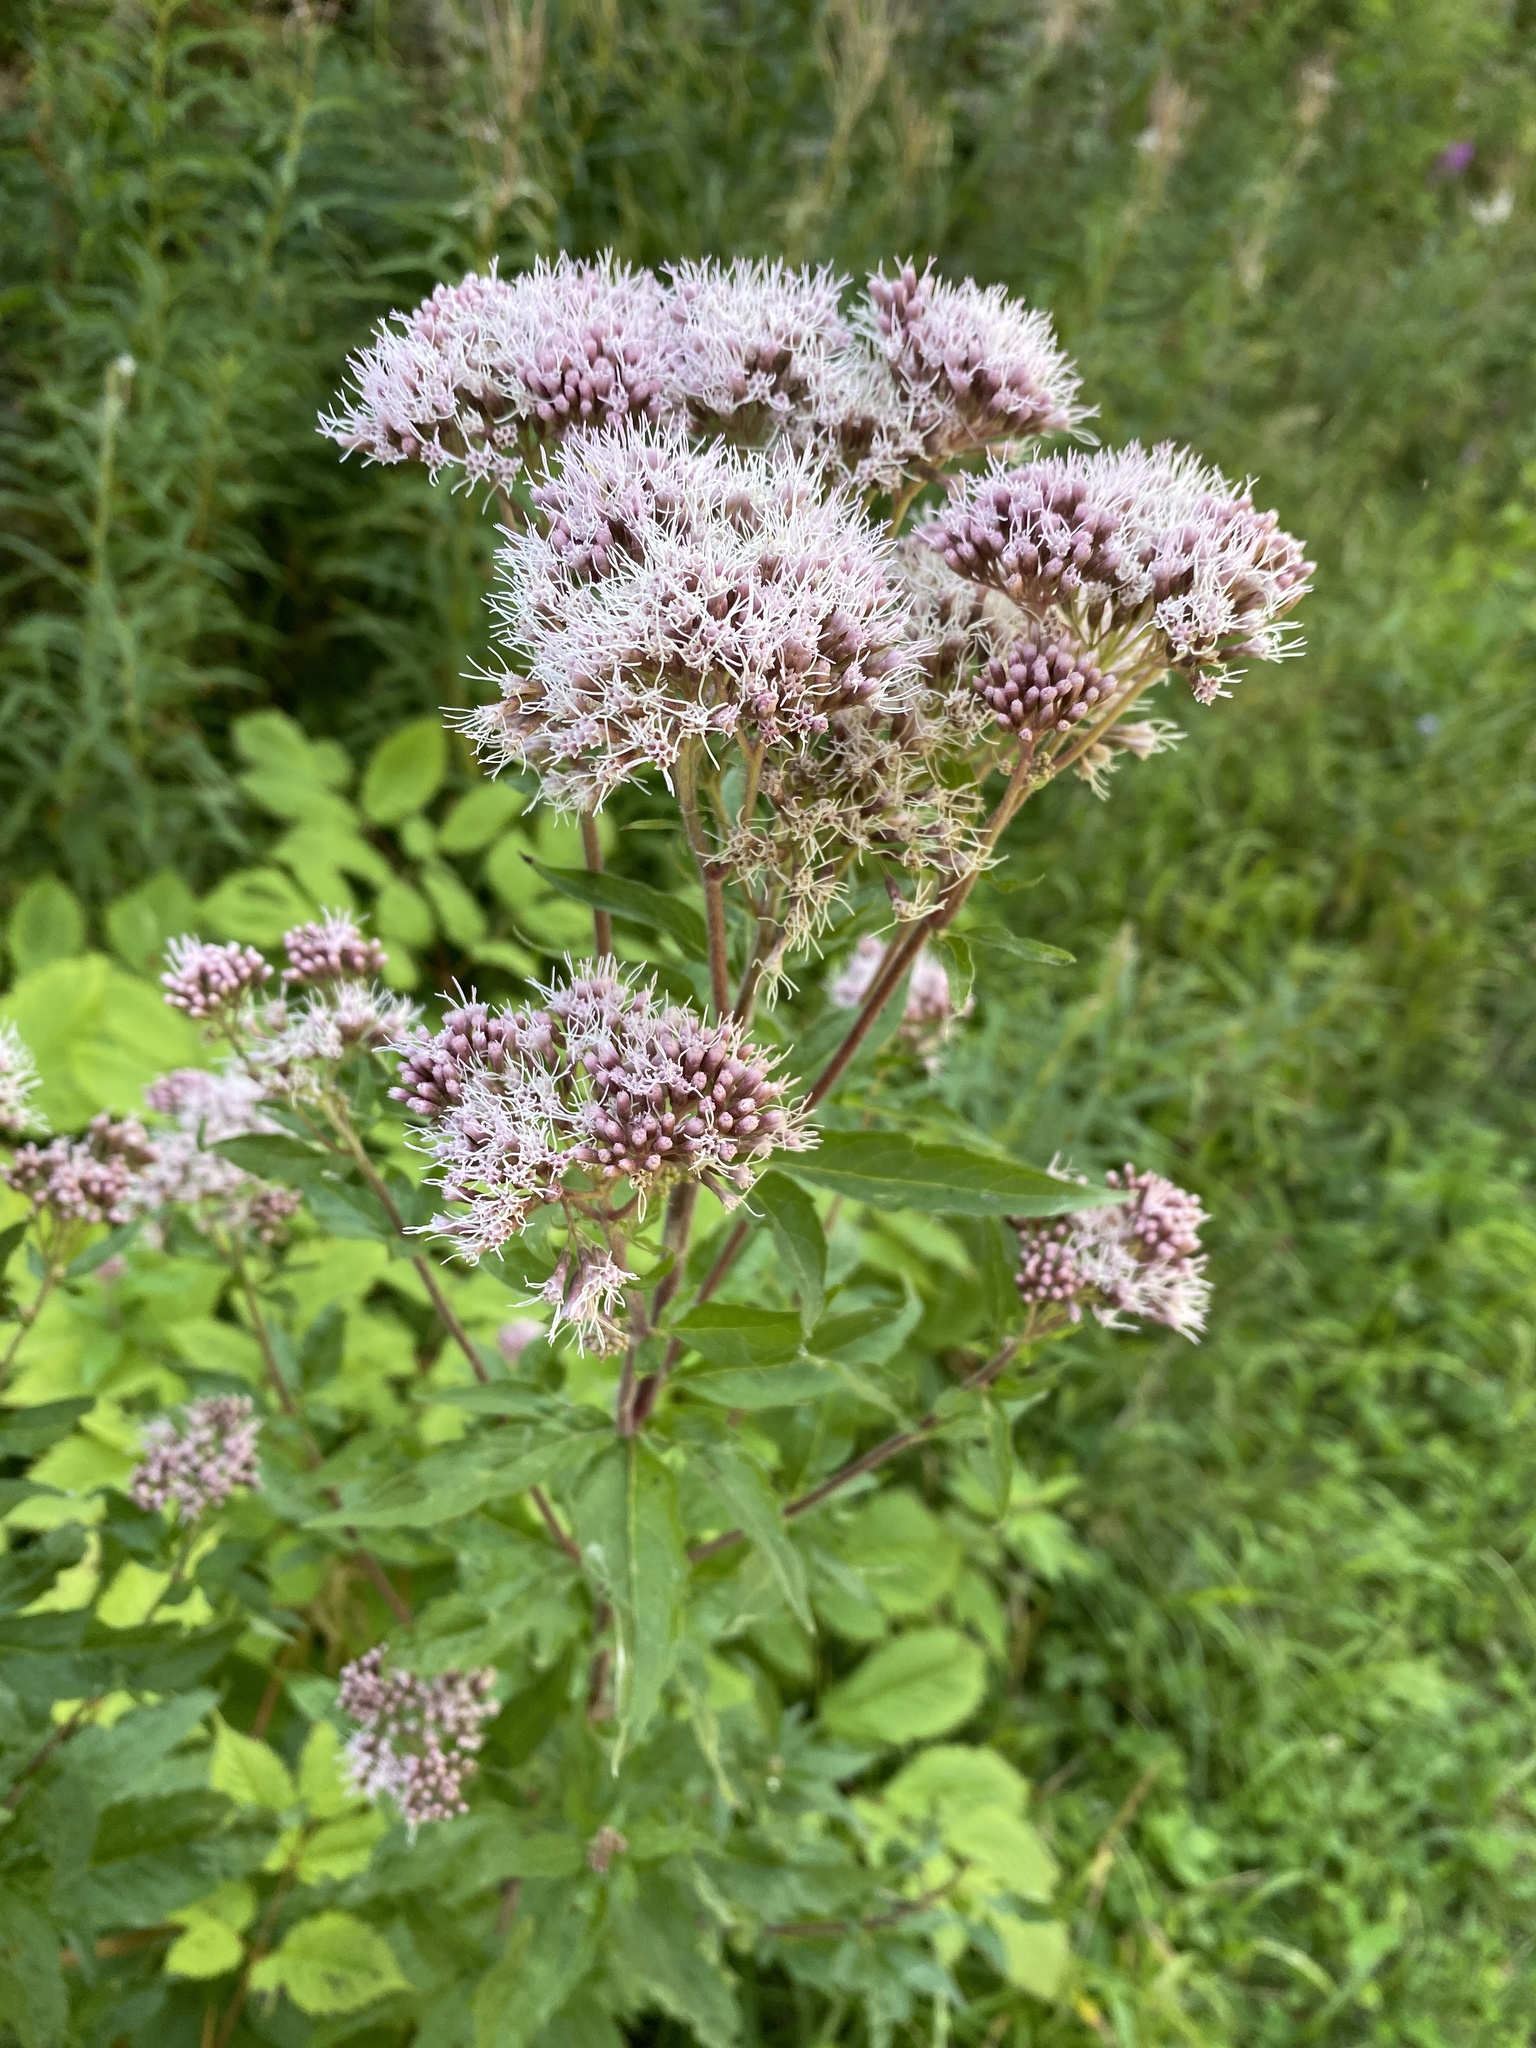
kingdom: Plantae
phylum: Tracheophyta
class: Magnoliopsida
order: Asterales
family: Asteraceae
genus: Eupatorium
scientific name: Eupatorium cannabinum
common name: Hemp-agrimony
